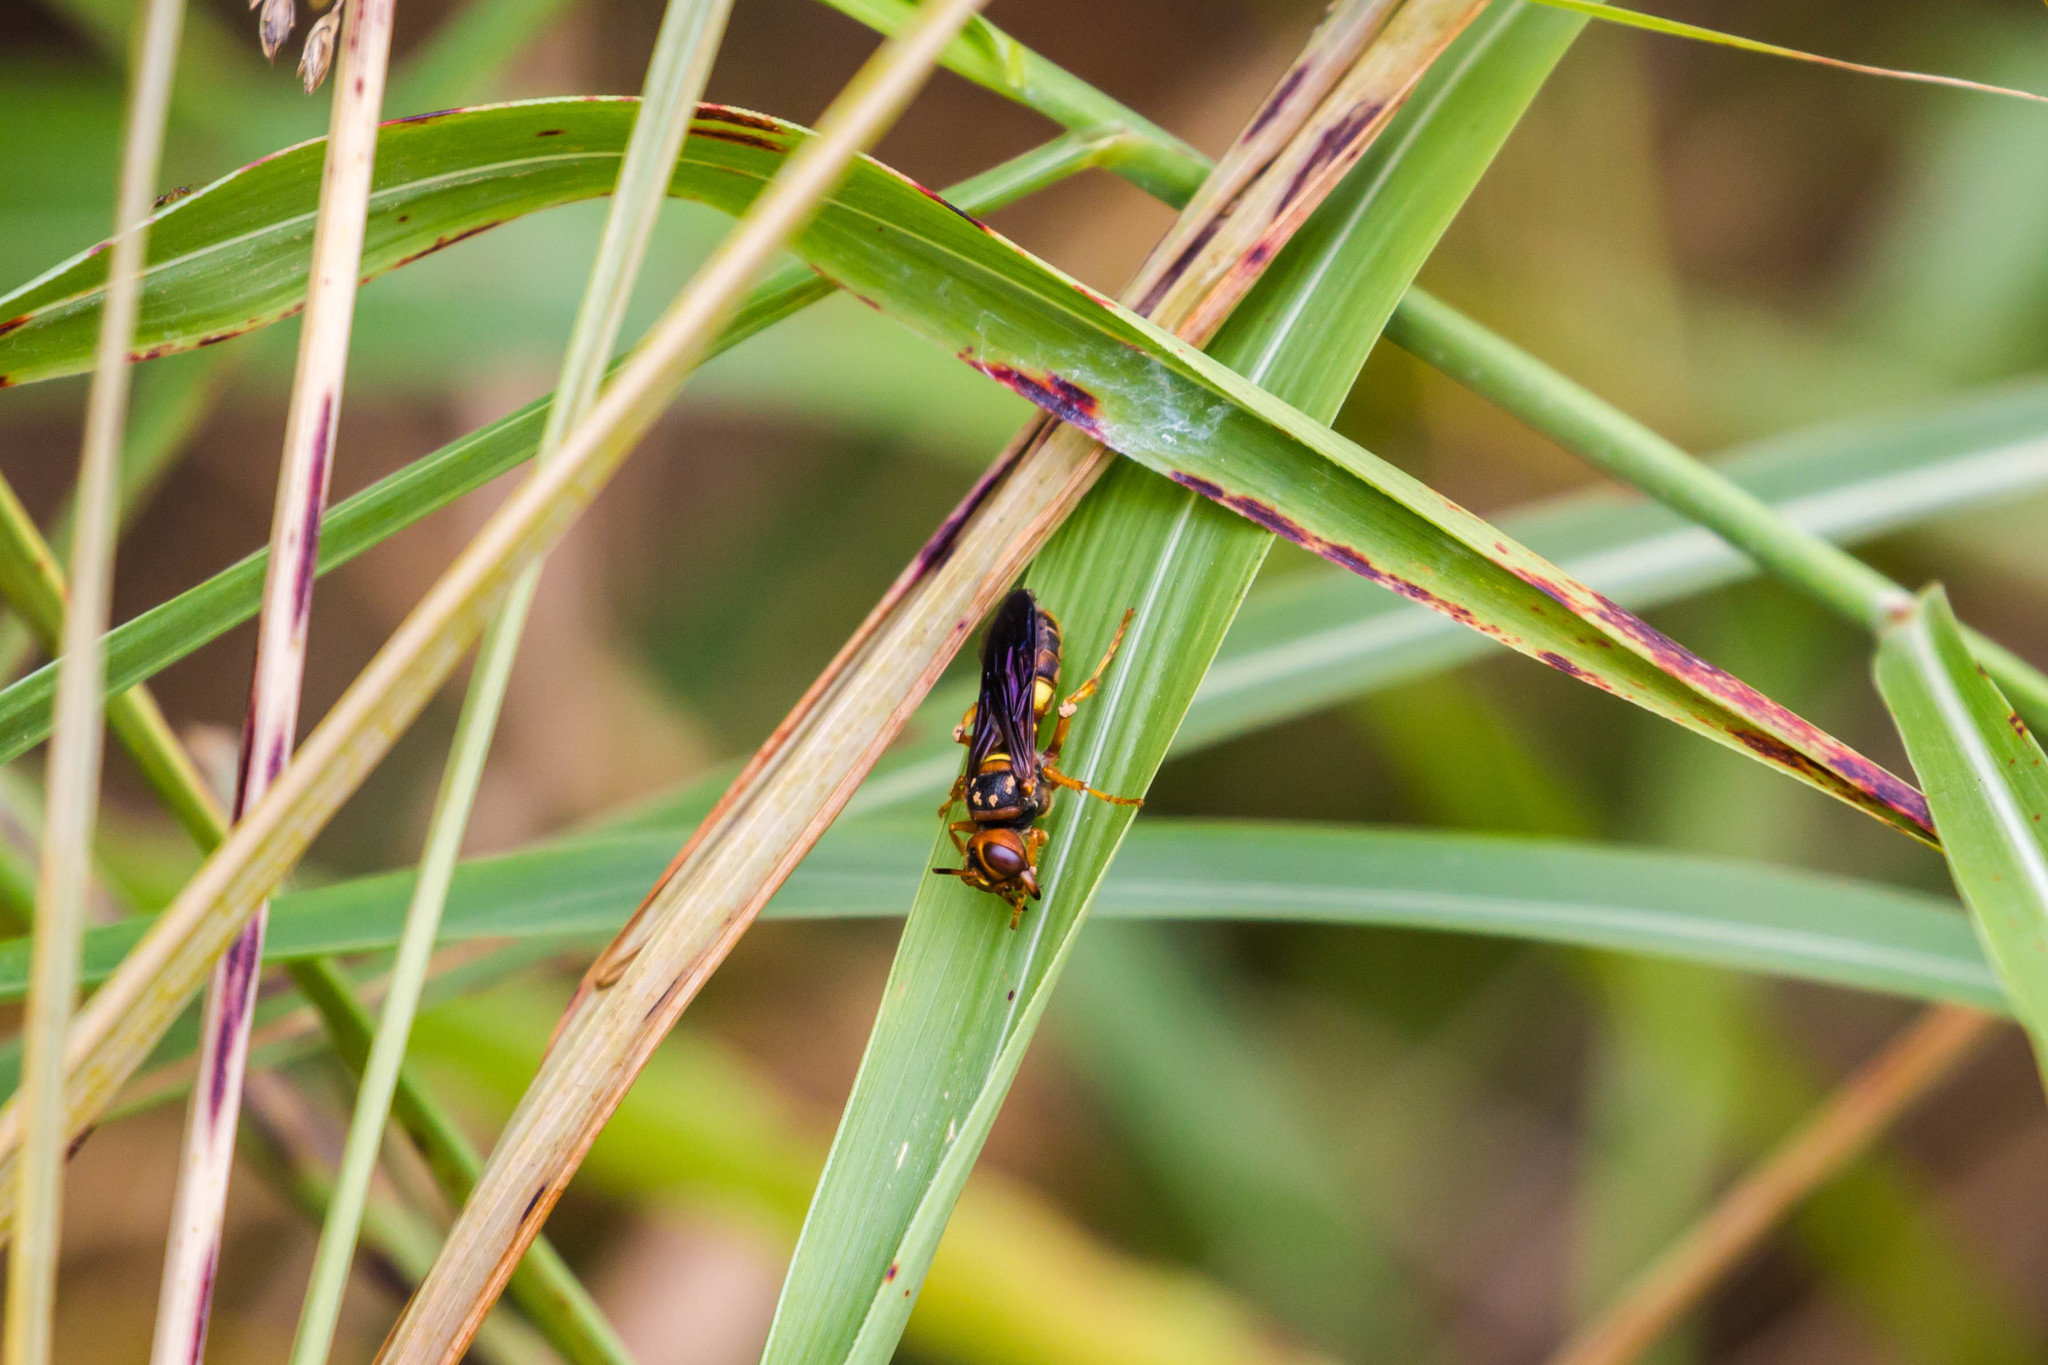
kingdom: Animalia
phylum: Arthropoda
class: Insecta
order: Hymenoptera
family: Crabronidae
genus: Cerceris
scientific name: Cerceris bicornuta
